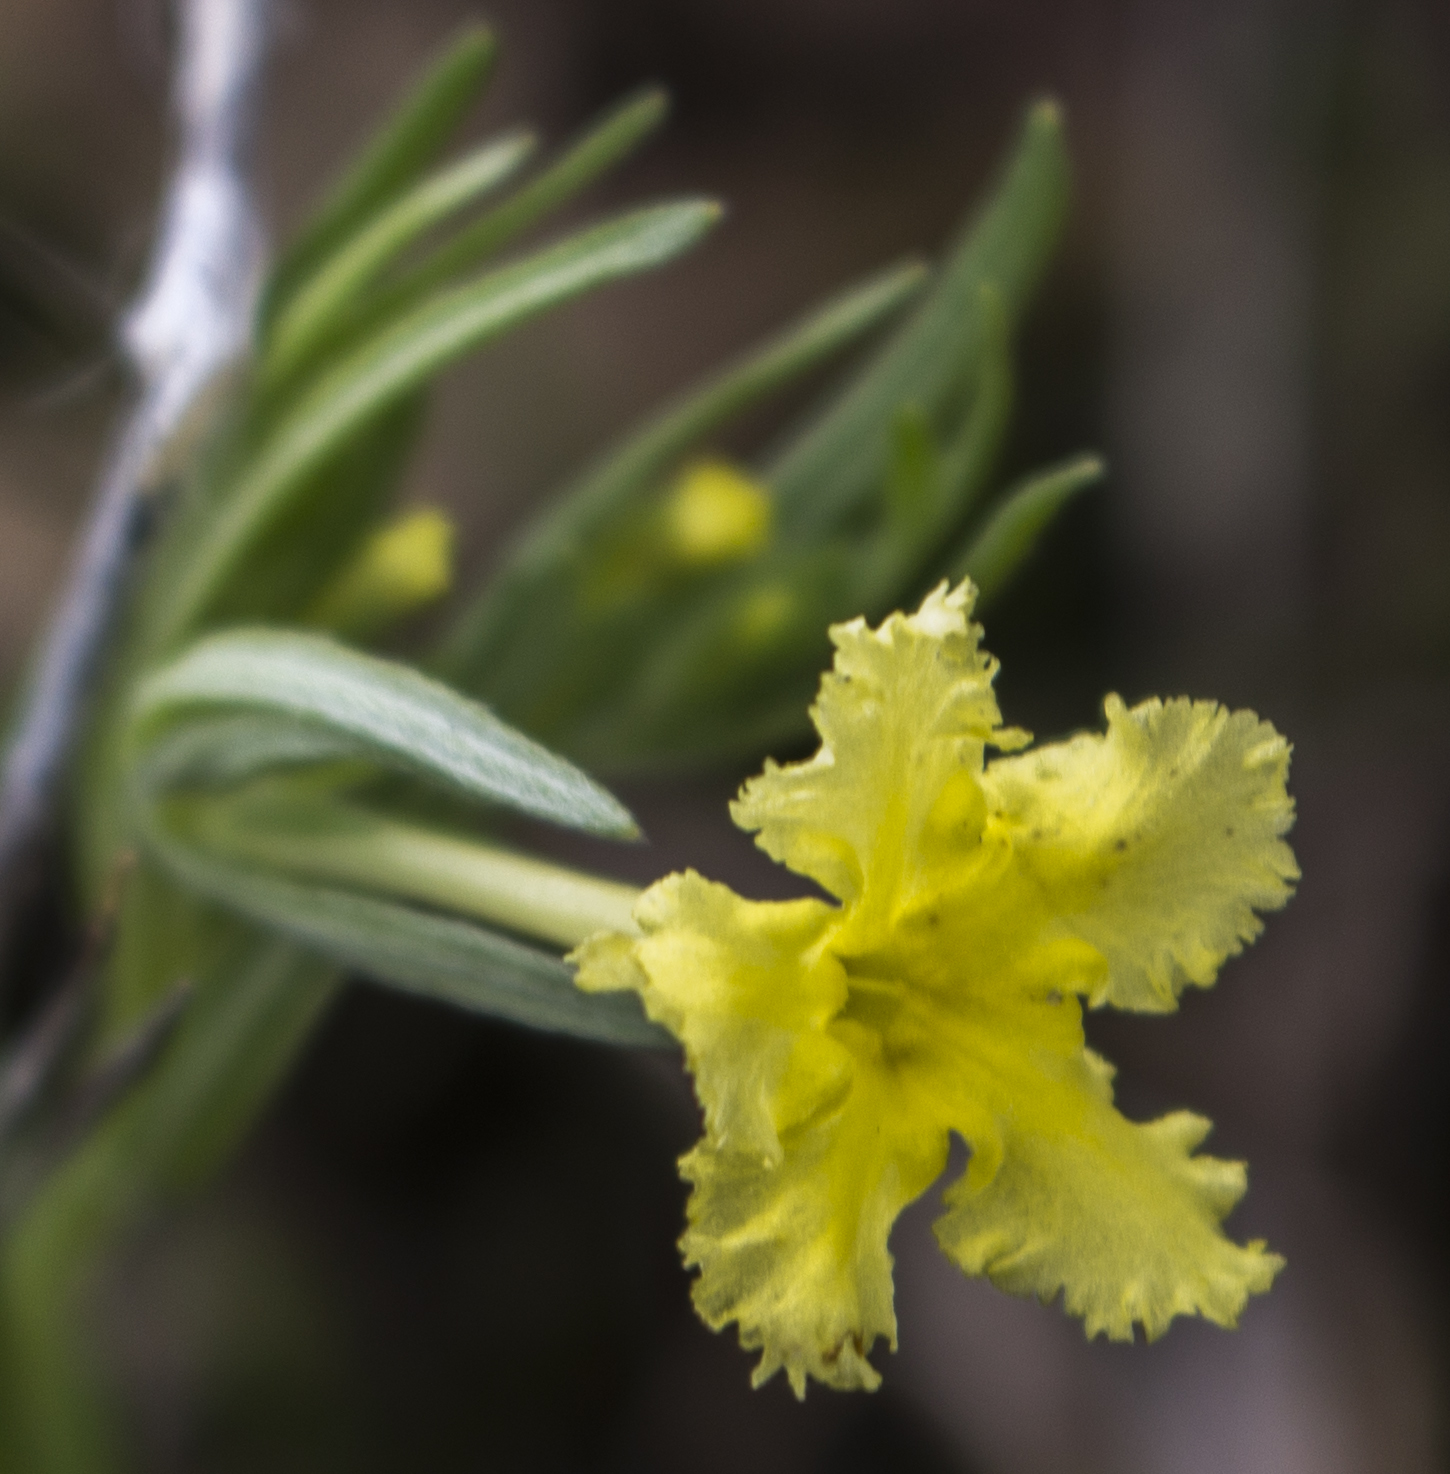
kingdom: Plantae
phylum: Tracheophyta
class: Magnoliopsida
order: Boraginales
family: Boraginaceae
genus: Lithospermum
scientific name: Lithospermum incisum
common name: Fringed gromwell
